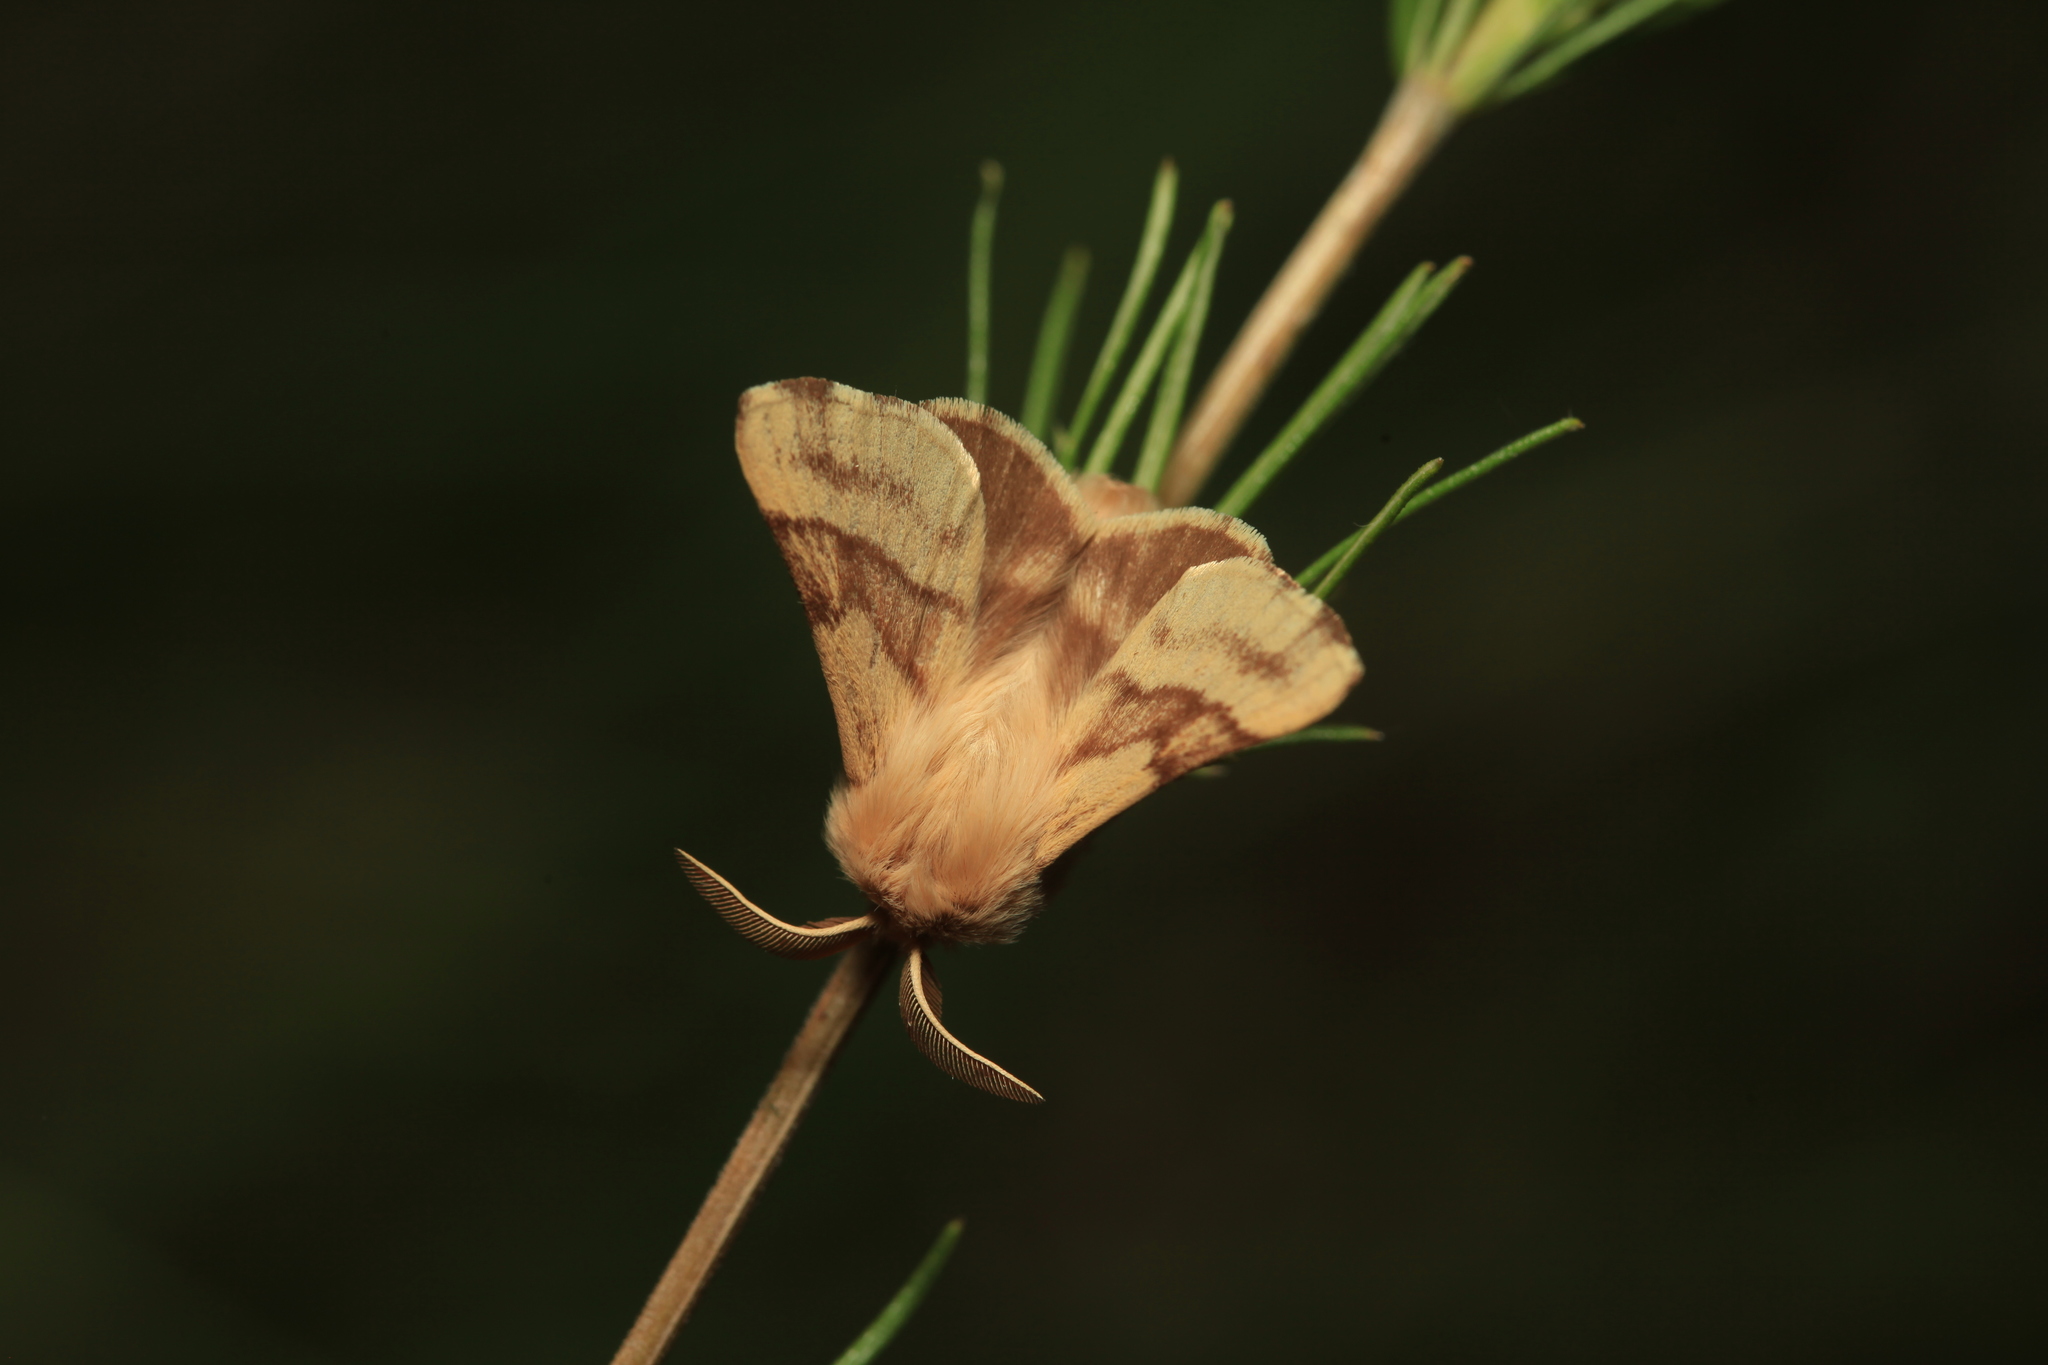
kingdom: Animalia
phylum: Arthropoda
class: Insecta
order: Lepidoptera
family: Lasiocampidae
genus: Malacosoma
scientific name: Malacosoma castrense
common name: Ground lackey
